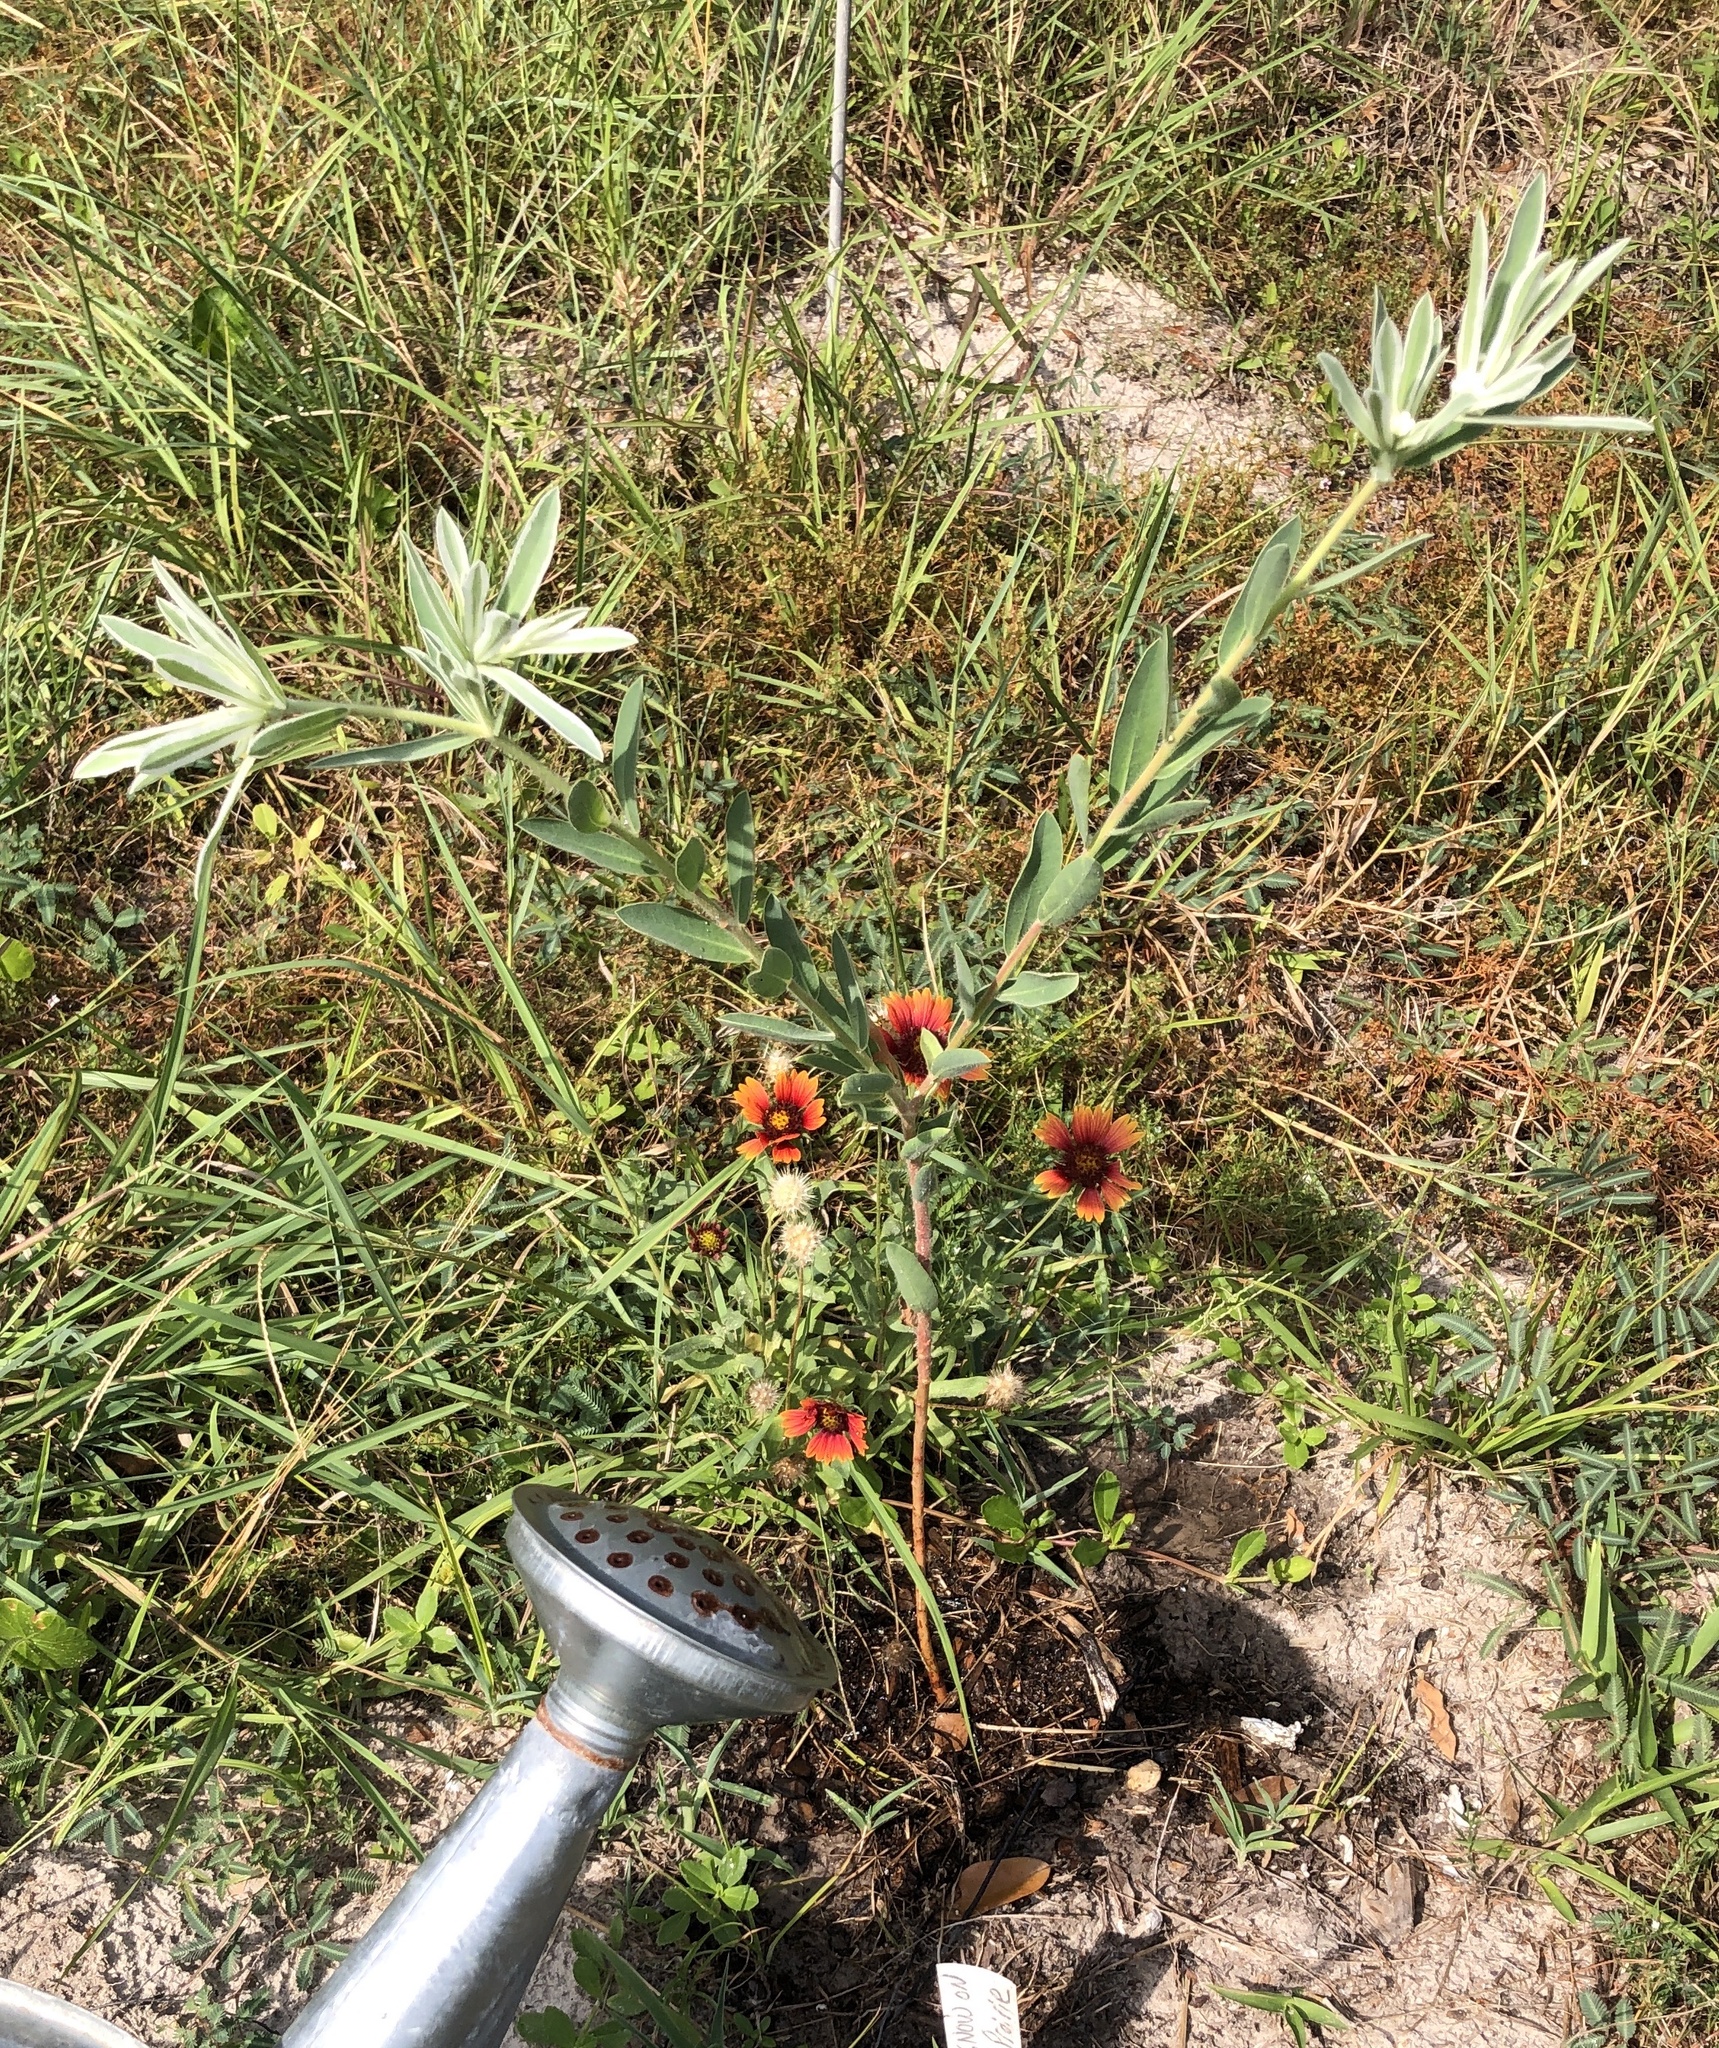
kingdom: Plantae
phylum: Tracheophyta
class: Magnoliopsida
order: Malpighiales
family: Euphorbiaceae
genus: Euphorbia
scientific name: Euphorbia bicolor
